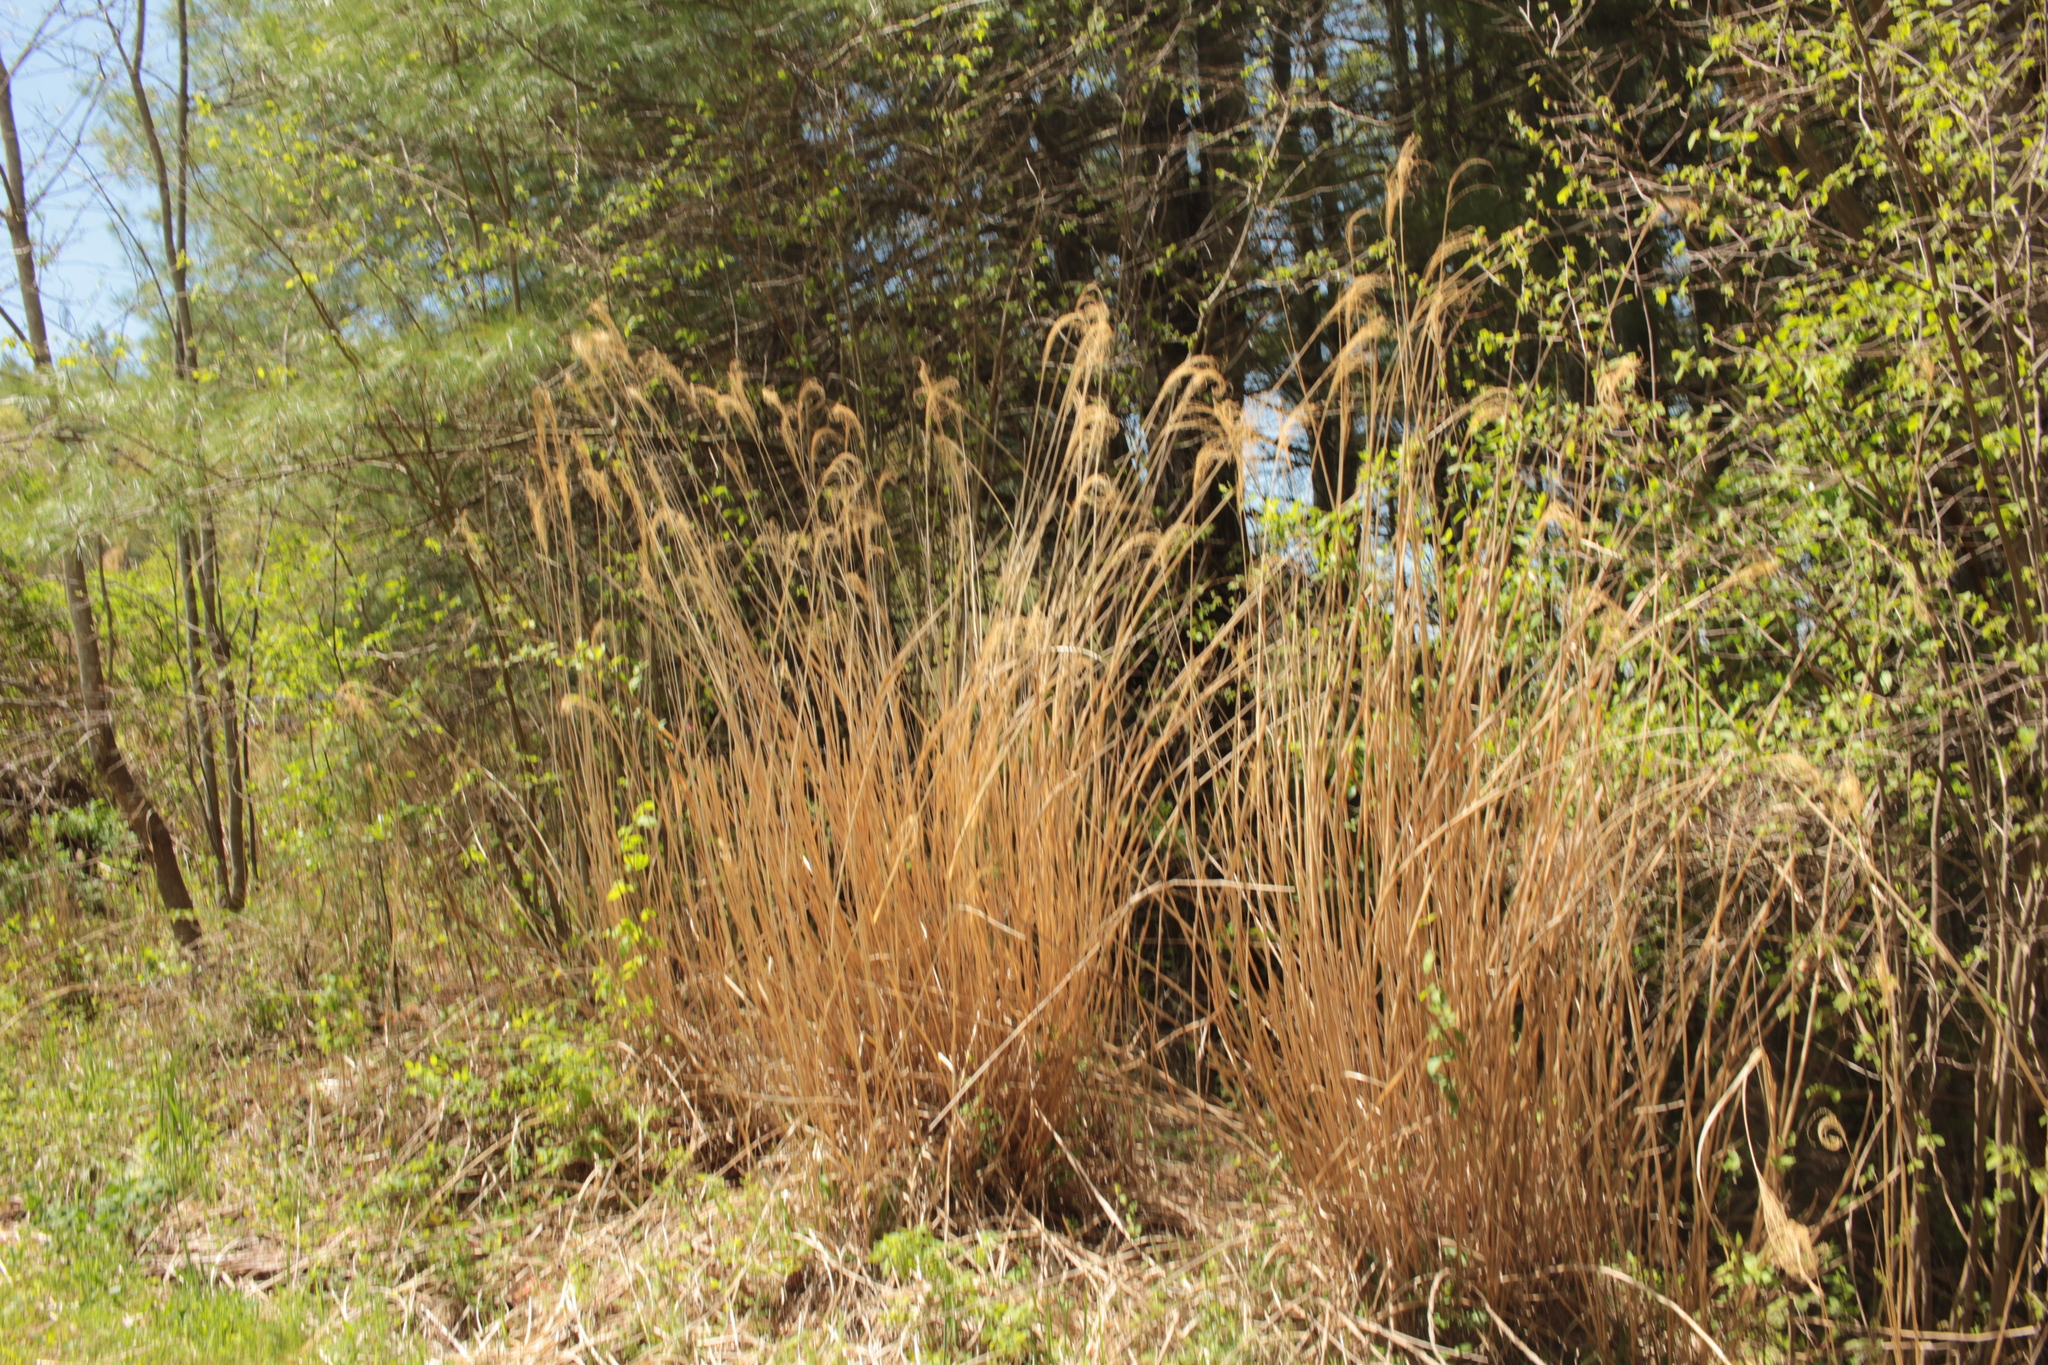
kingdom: Plantae
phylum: Tracheophyta
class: Liliopsida
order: Poales
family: Poaceae
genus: Miscanthus
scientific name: Miscanthus sinensis
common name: Chinese silvergrass
